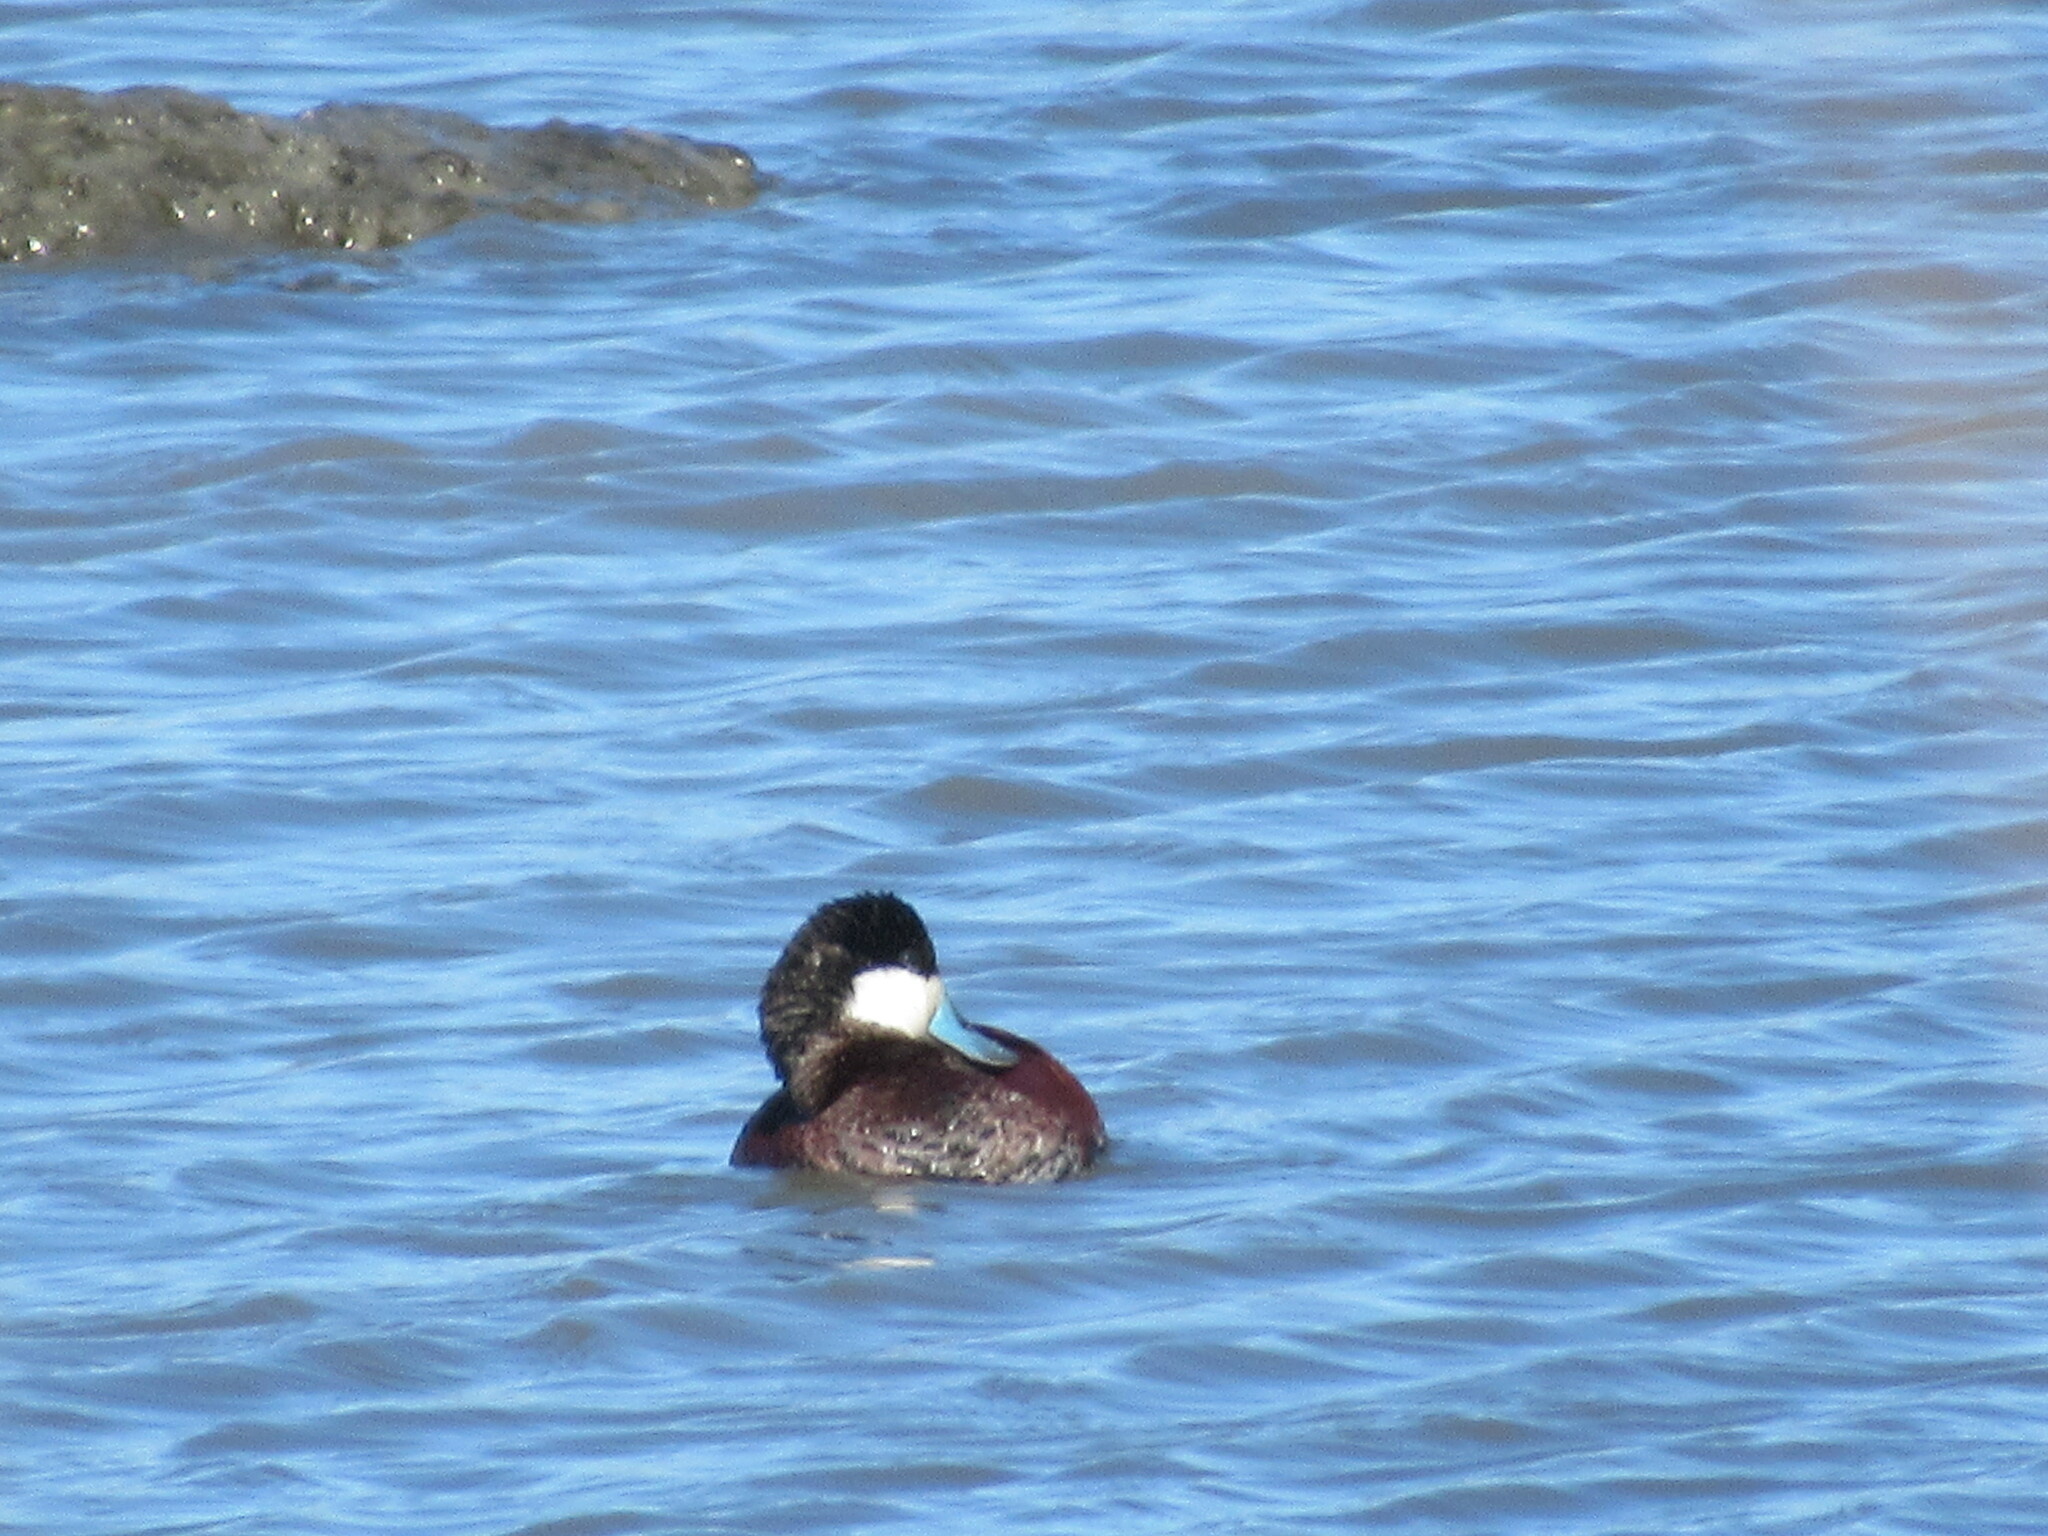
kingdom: Animalia
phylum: Chordata
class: Aves
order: Anseriformes
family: Anatidae
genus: Oxyura
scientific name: Oxyura jamaicensis
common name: Ruddy duck
